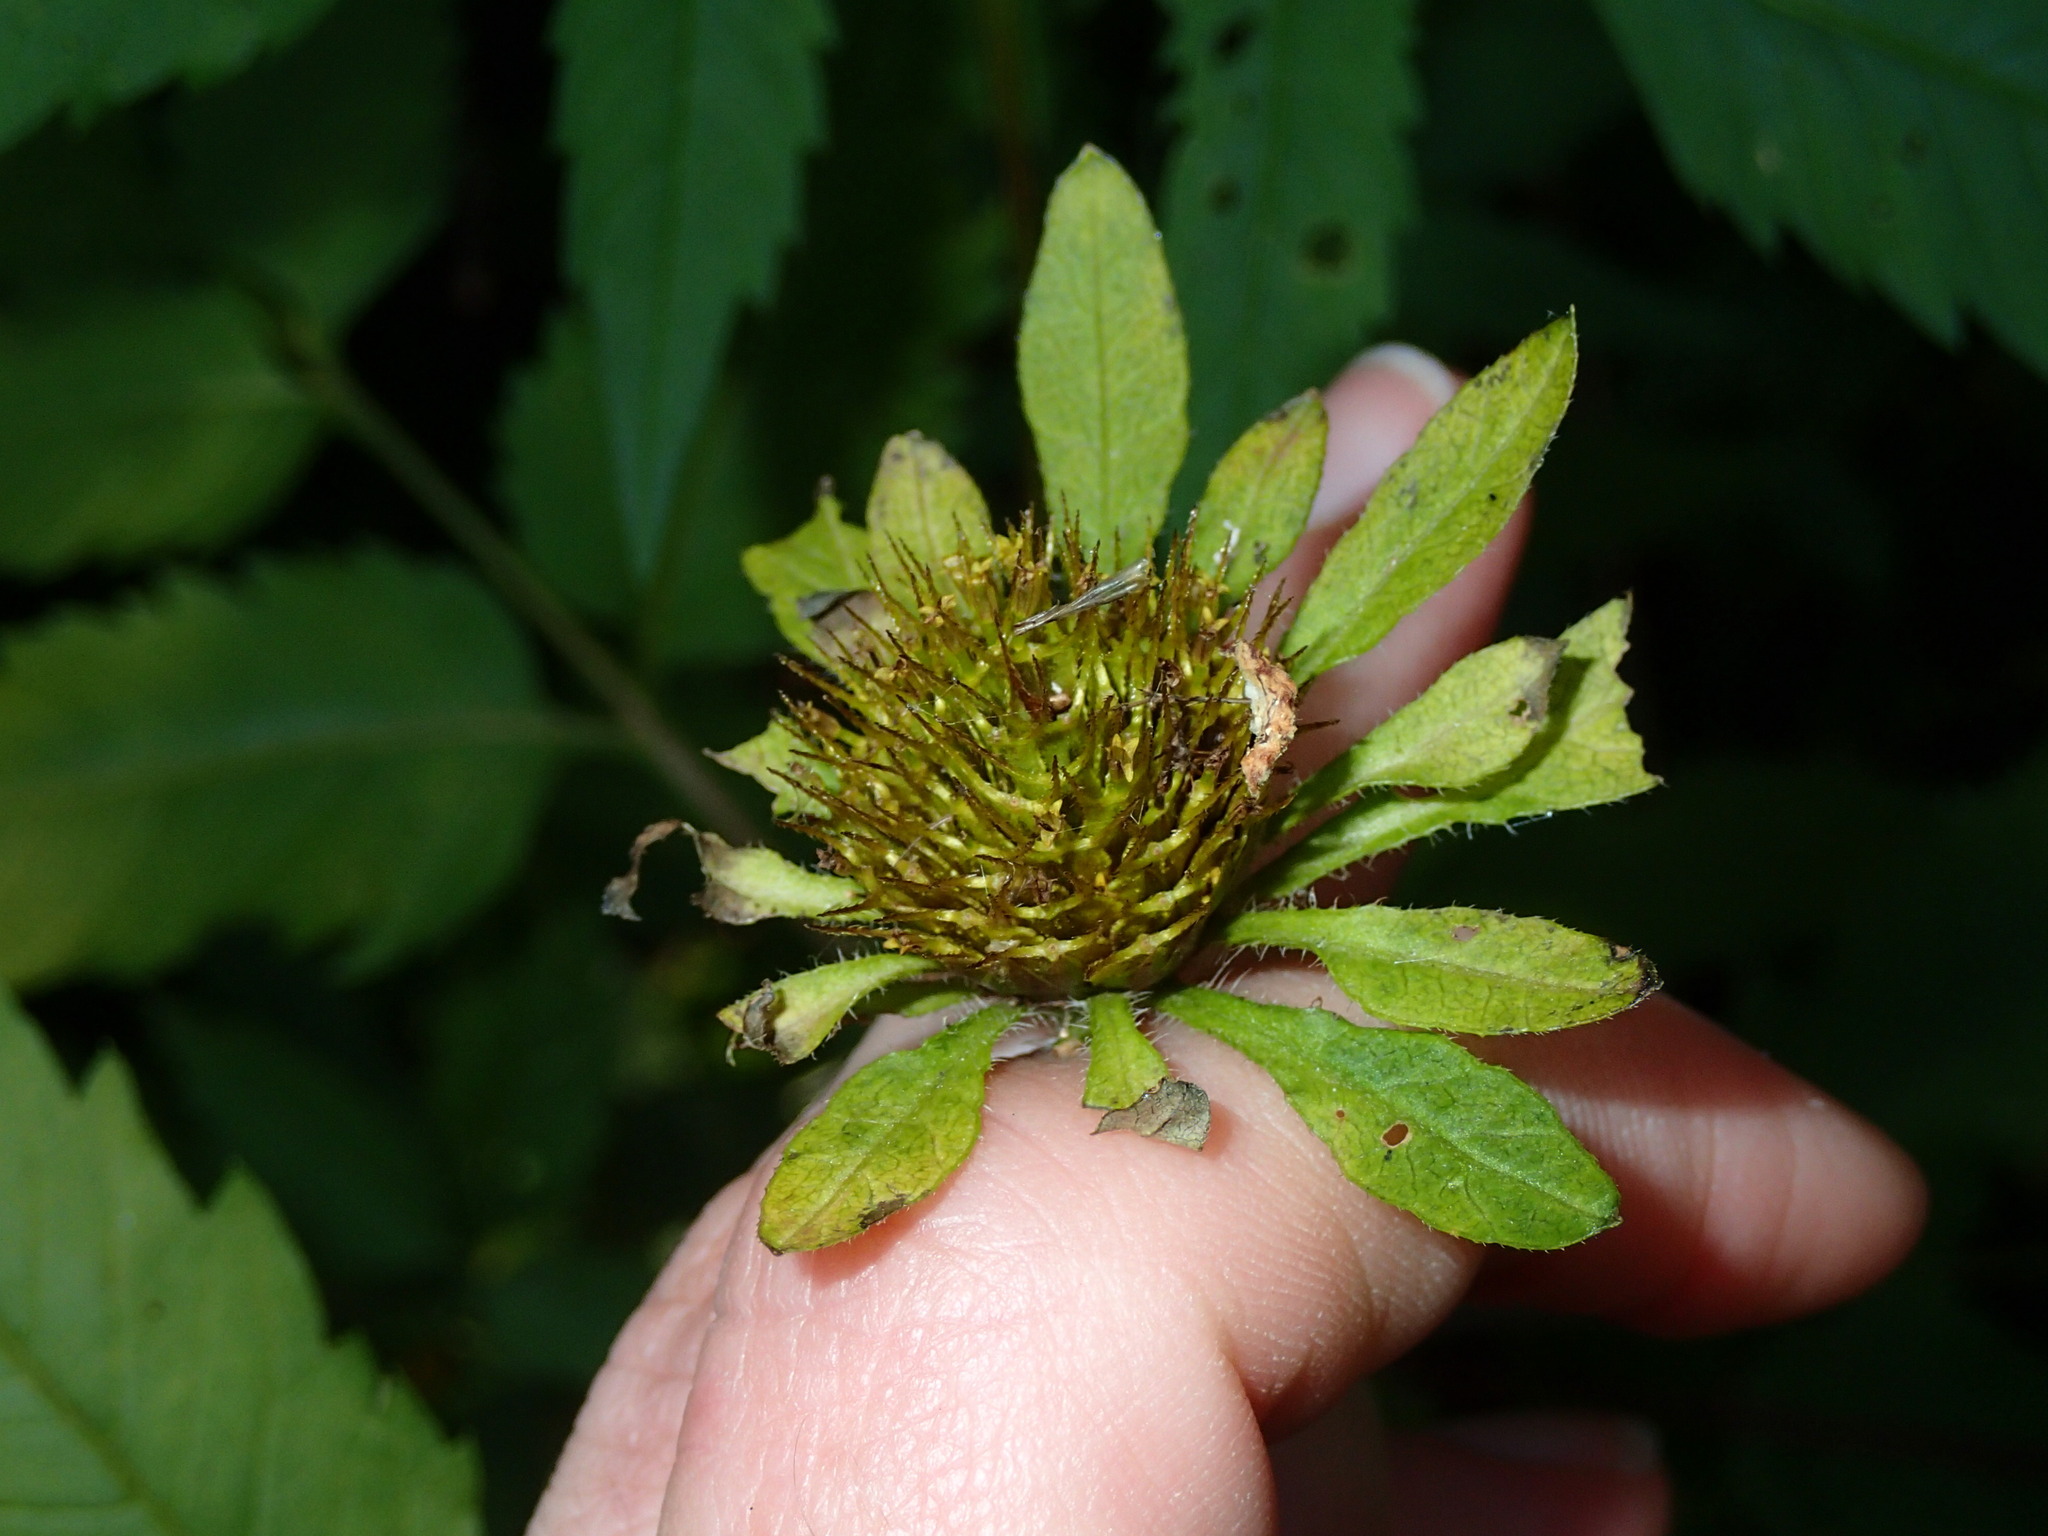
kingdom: Plantae
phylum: Tracheophyta
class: Magnoliopsida
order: Asterales
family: Asteraceae
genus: Bidens
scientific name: Bidens vulgata
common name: Tall beggarticks
